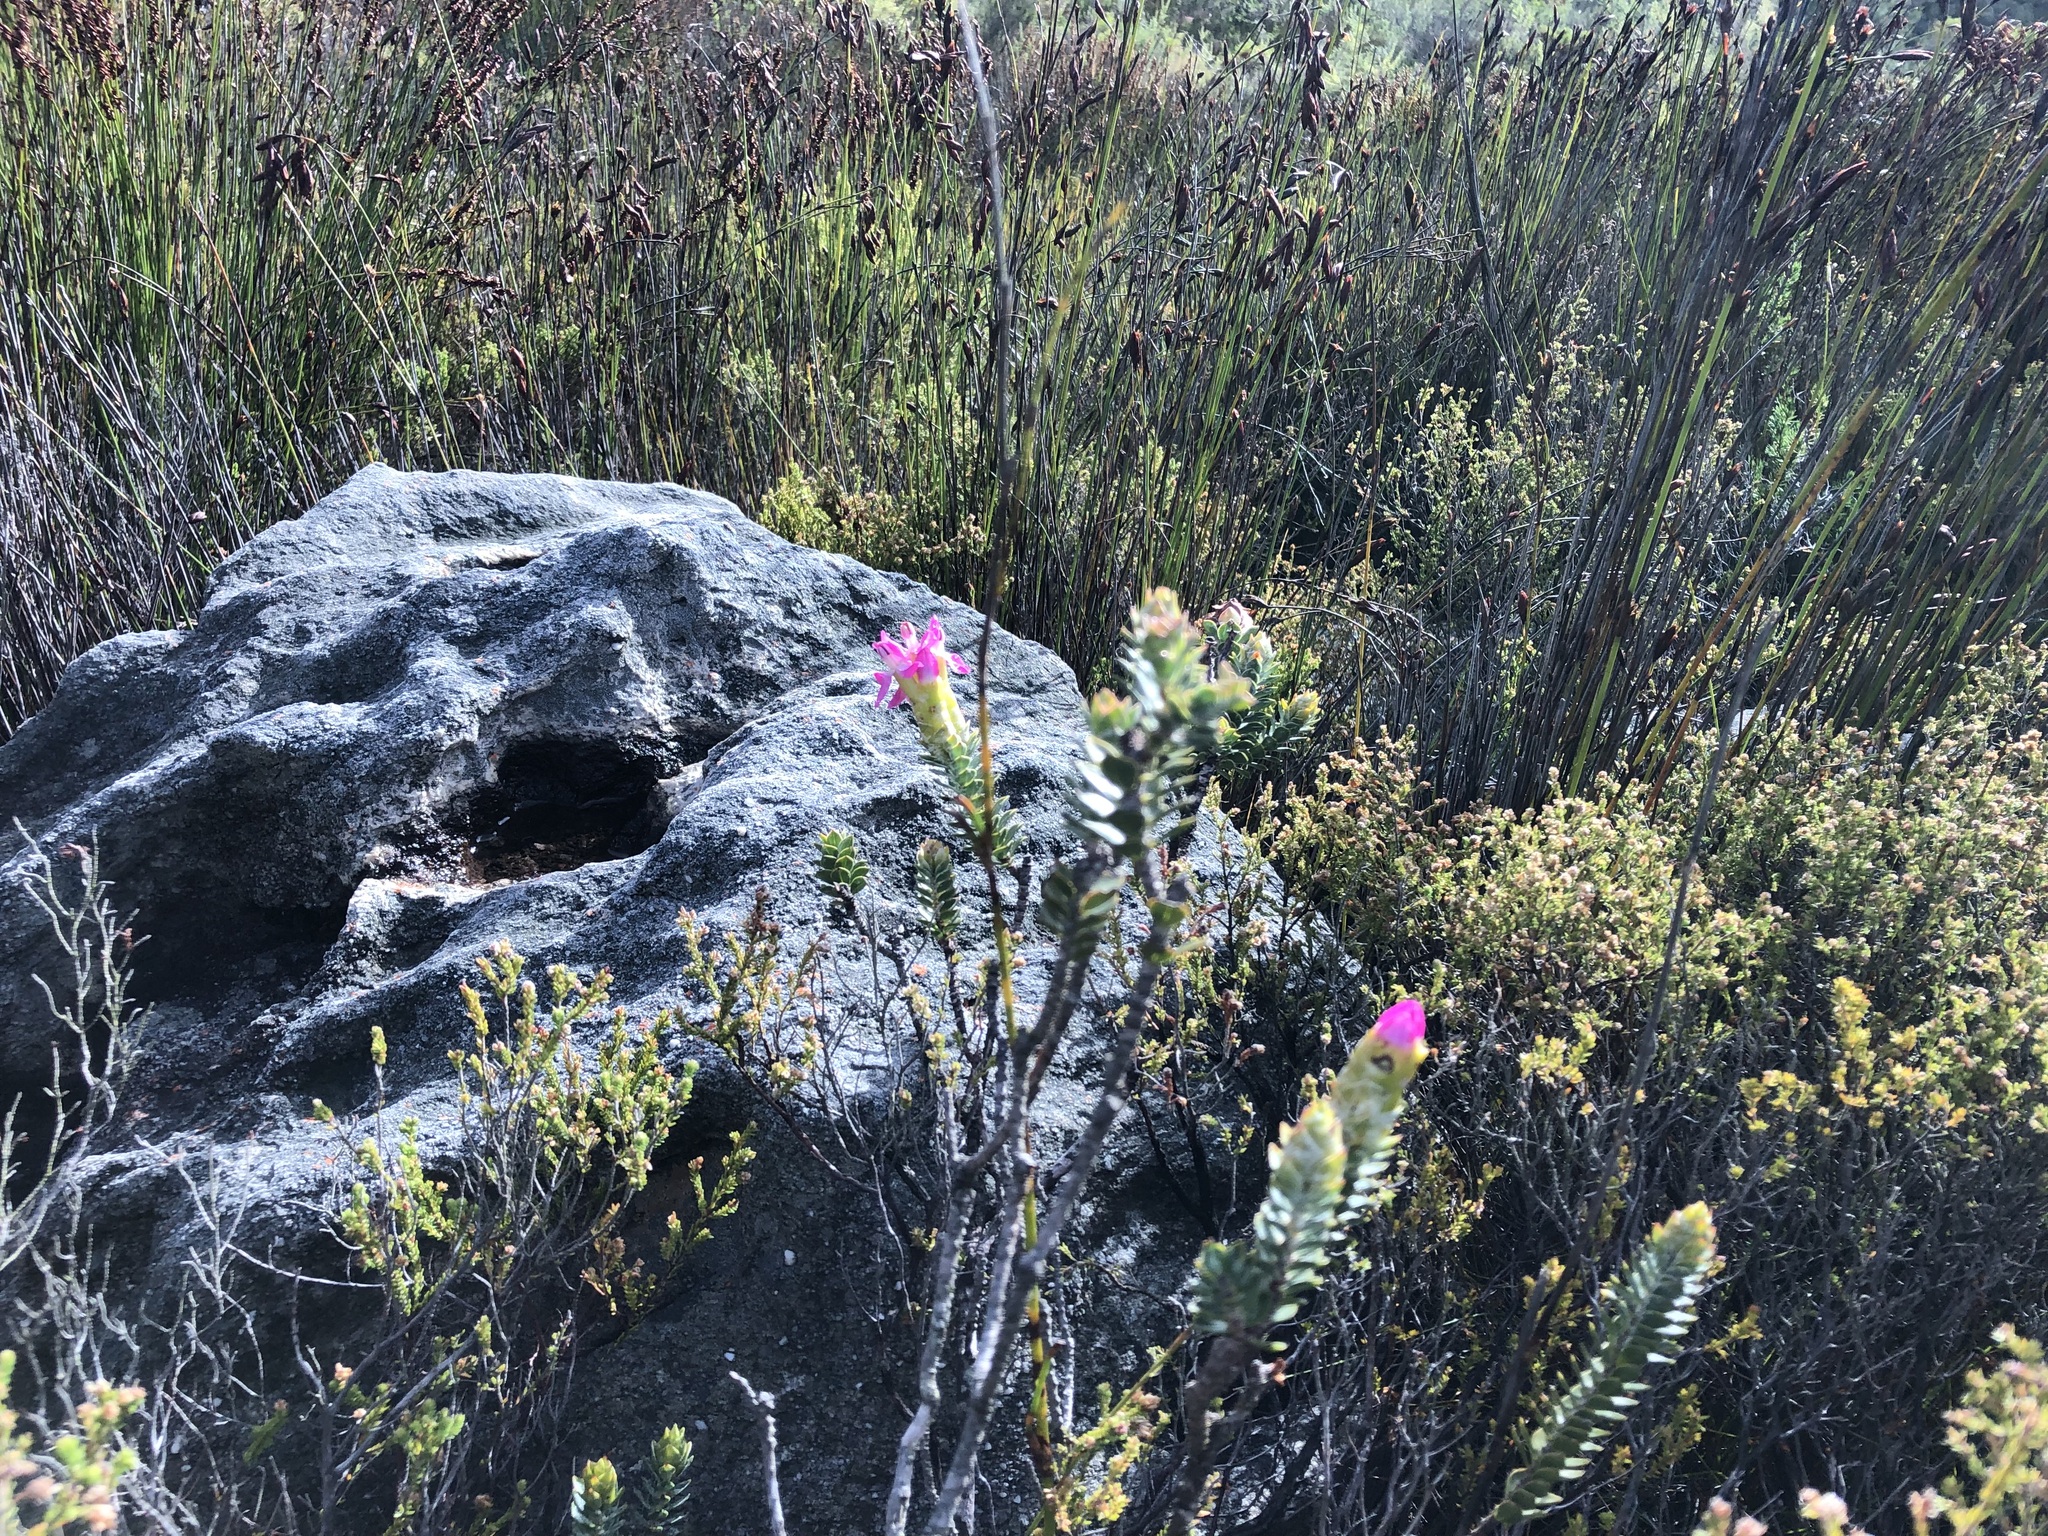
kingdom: Plantae
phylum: Tracheophyta
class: Magnoliopsida
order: Myrtales
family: Penaeaceae
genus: Saltera
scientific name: Saltera sarcocolla
